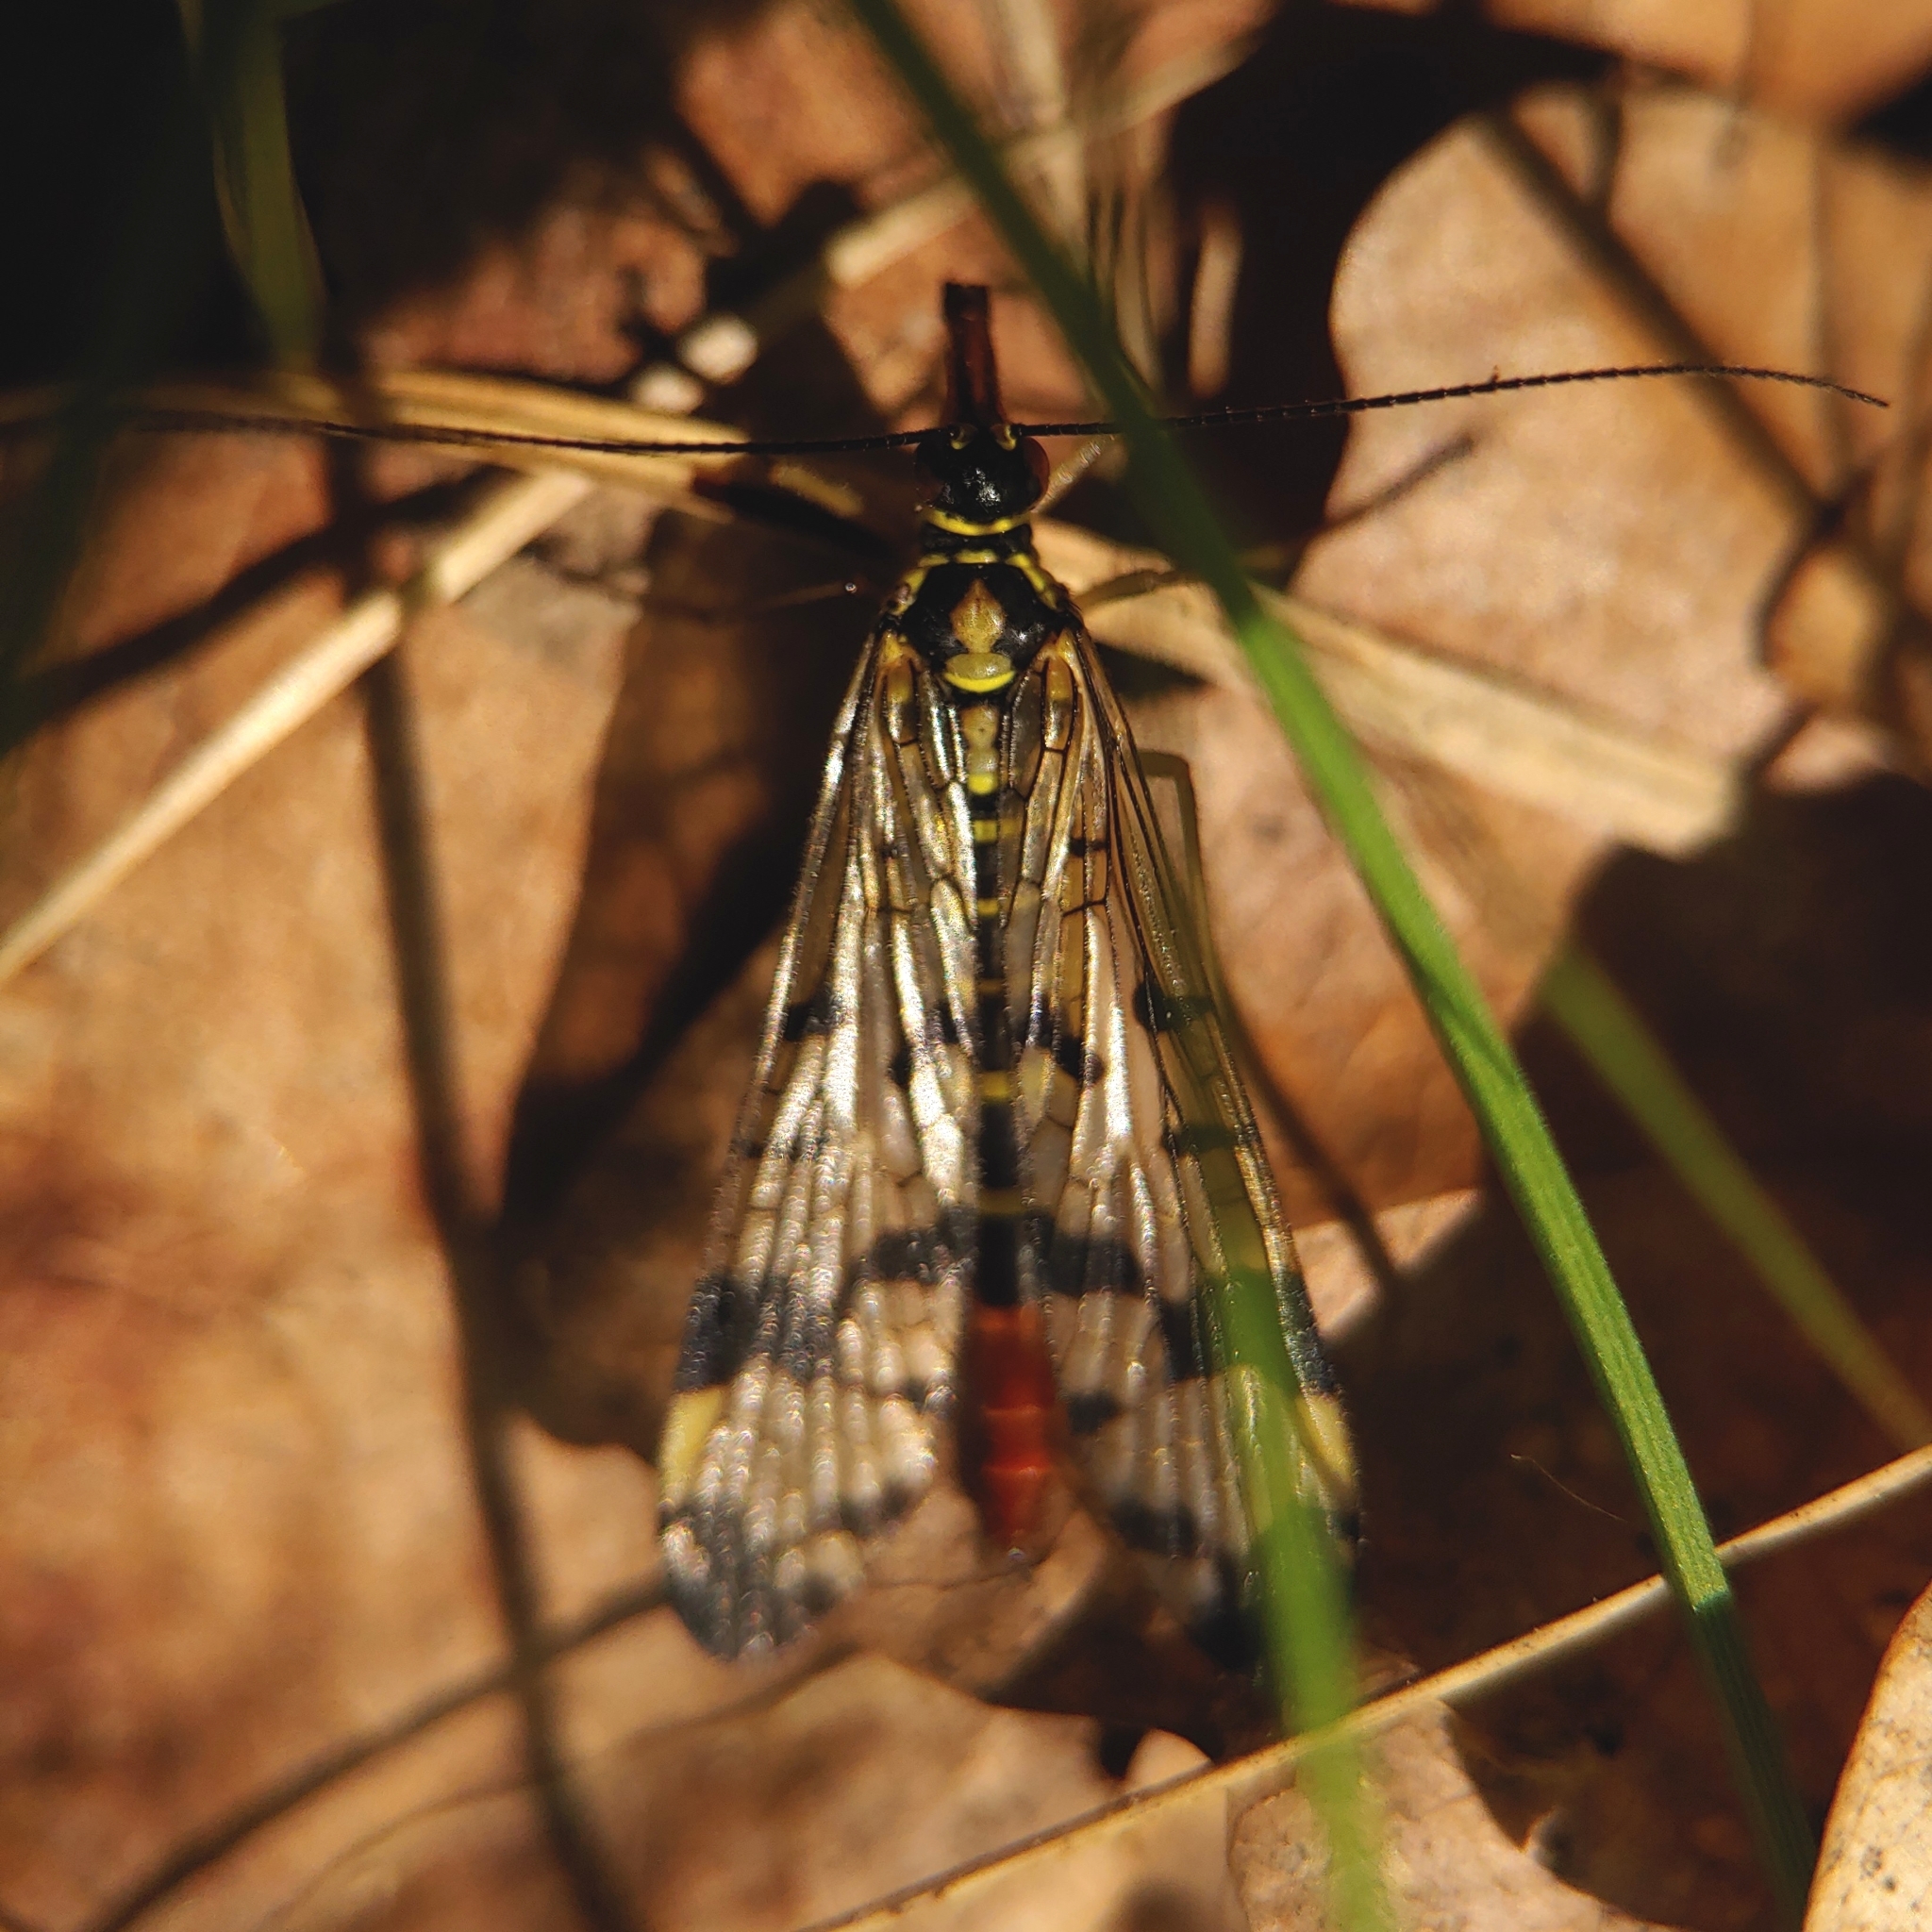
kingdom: Animalia
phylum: Arthropoda
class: Insecta
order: Mecoptera
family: Panorpidae
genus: Panorpa
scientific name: Panorpa communis
